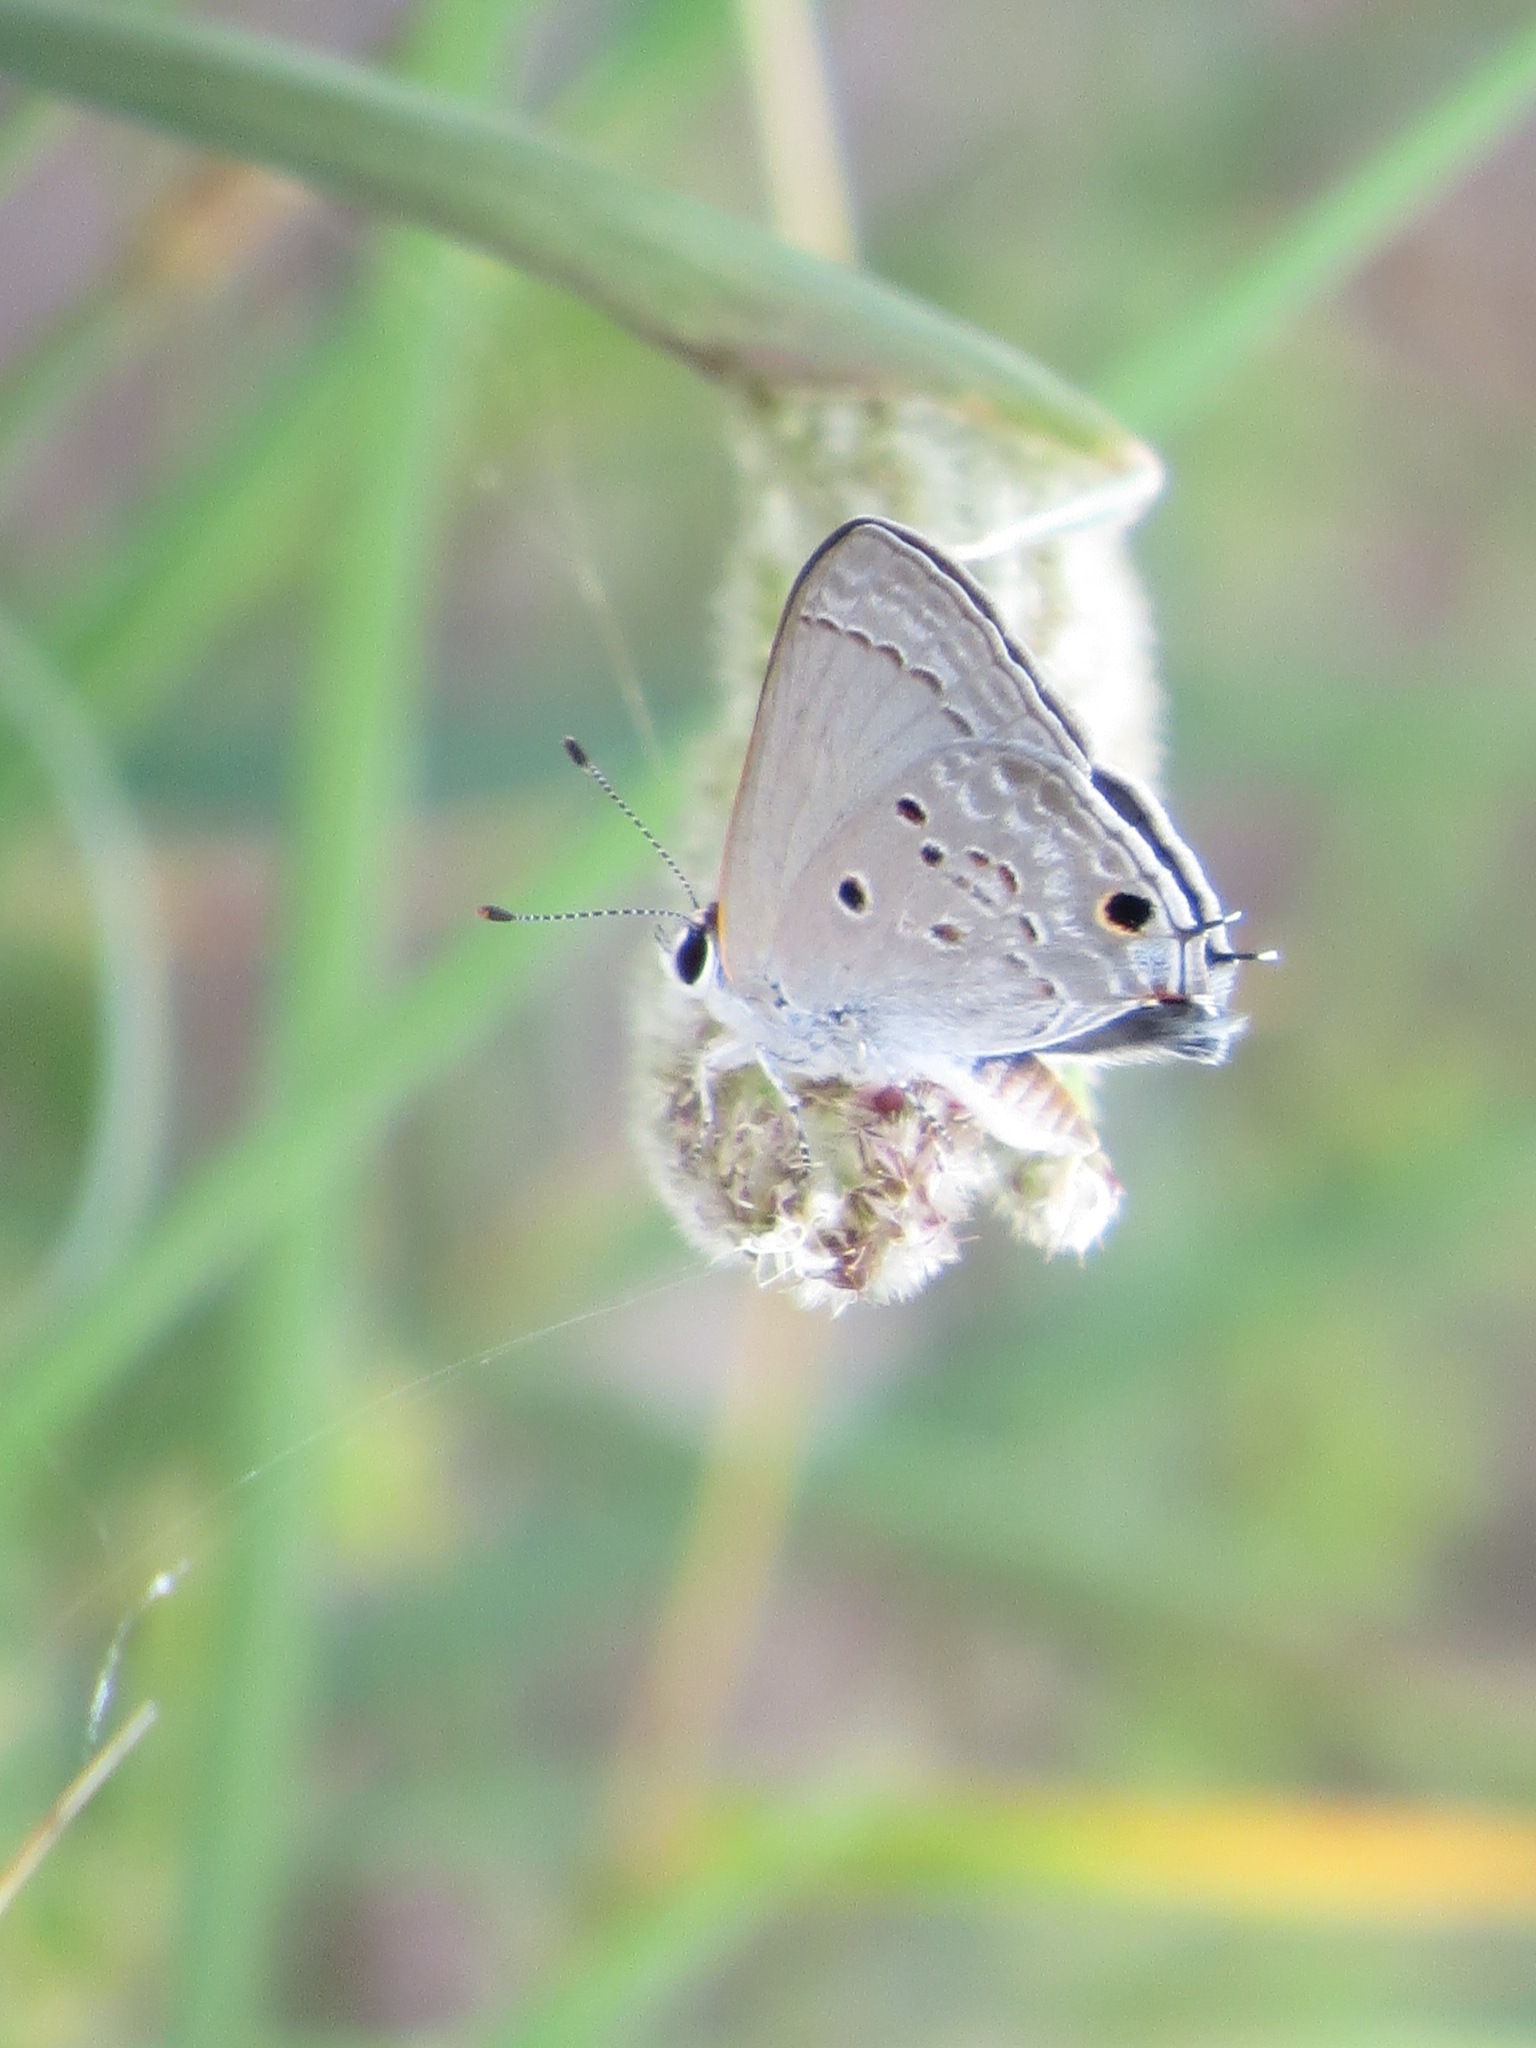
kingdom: Animalia
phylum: Arthropoda
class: Insecta
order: Lepidoptera
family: Lycaenidae
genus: Callicista
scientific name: Callicista columella
